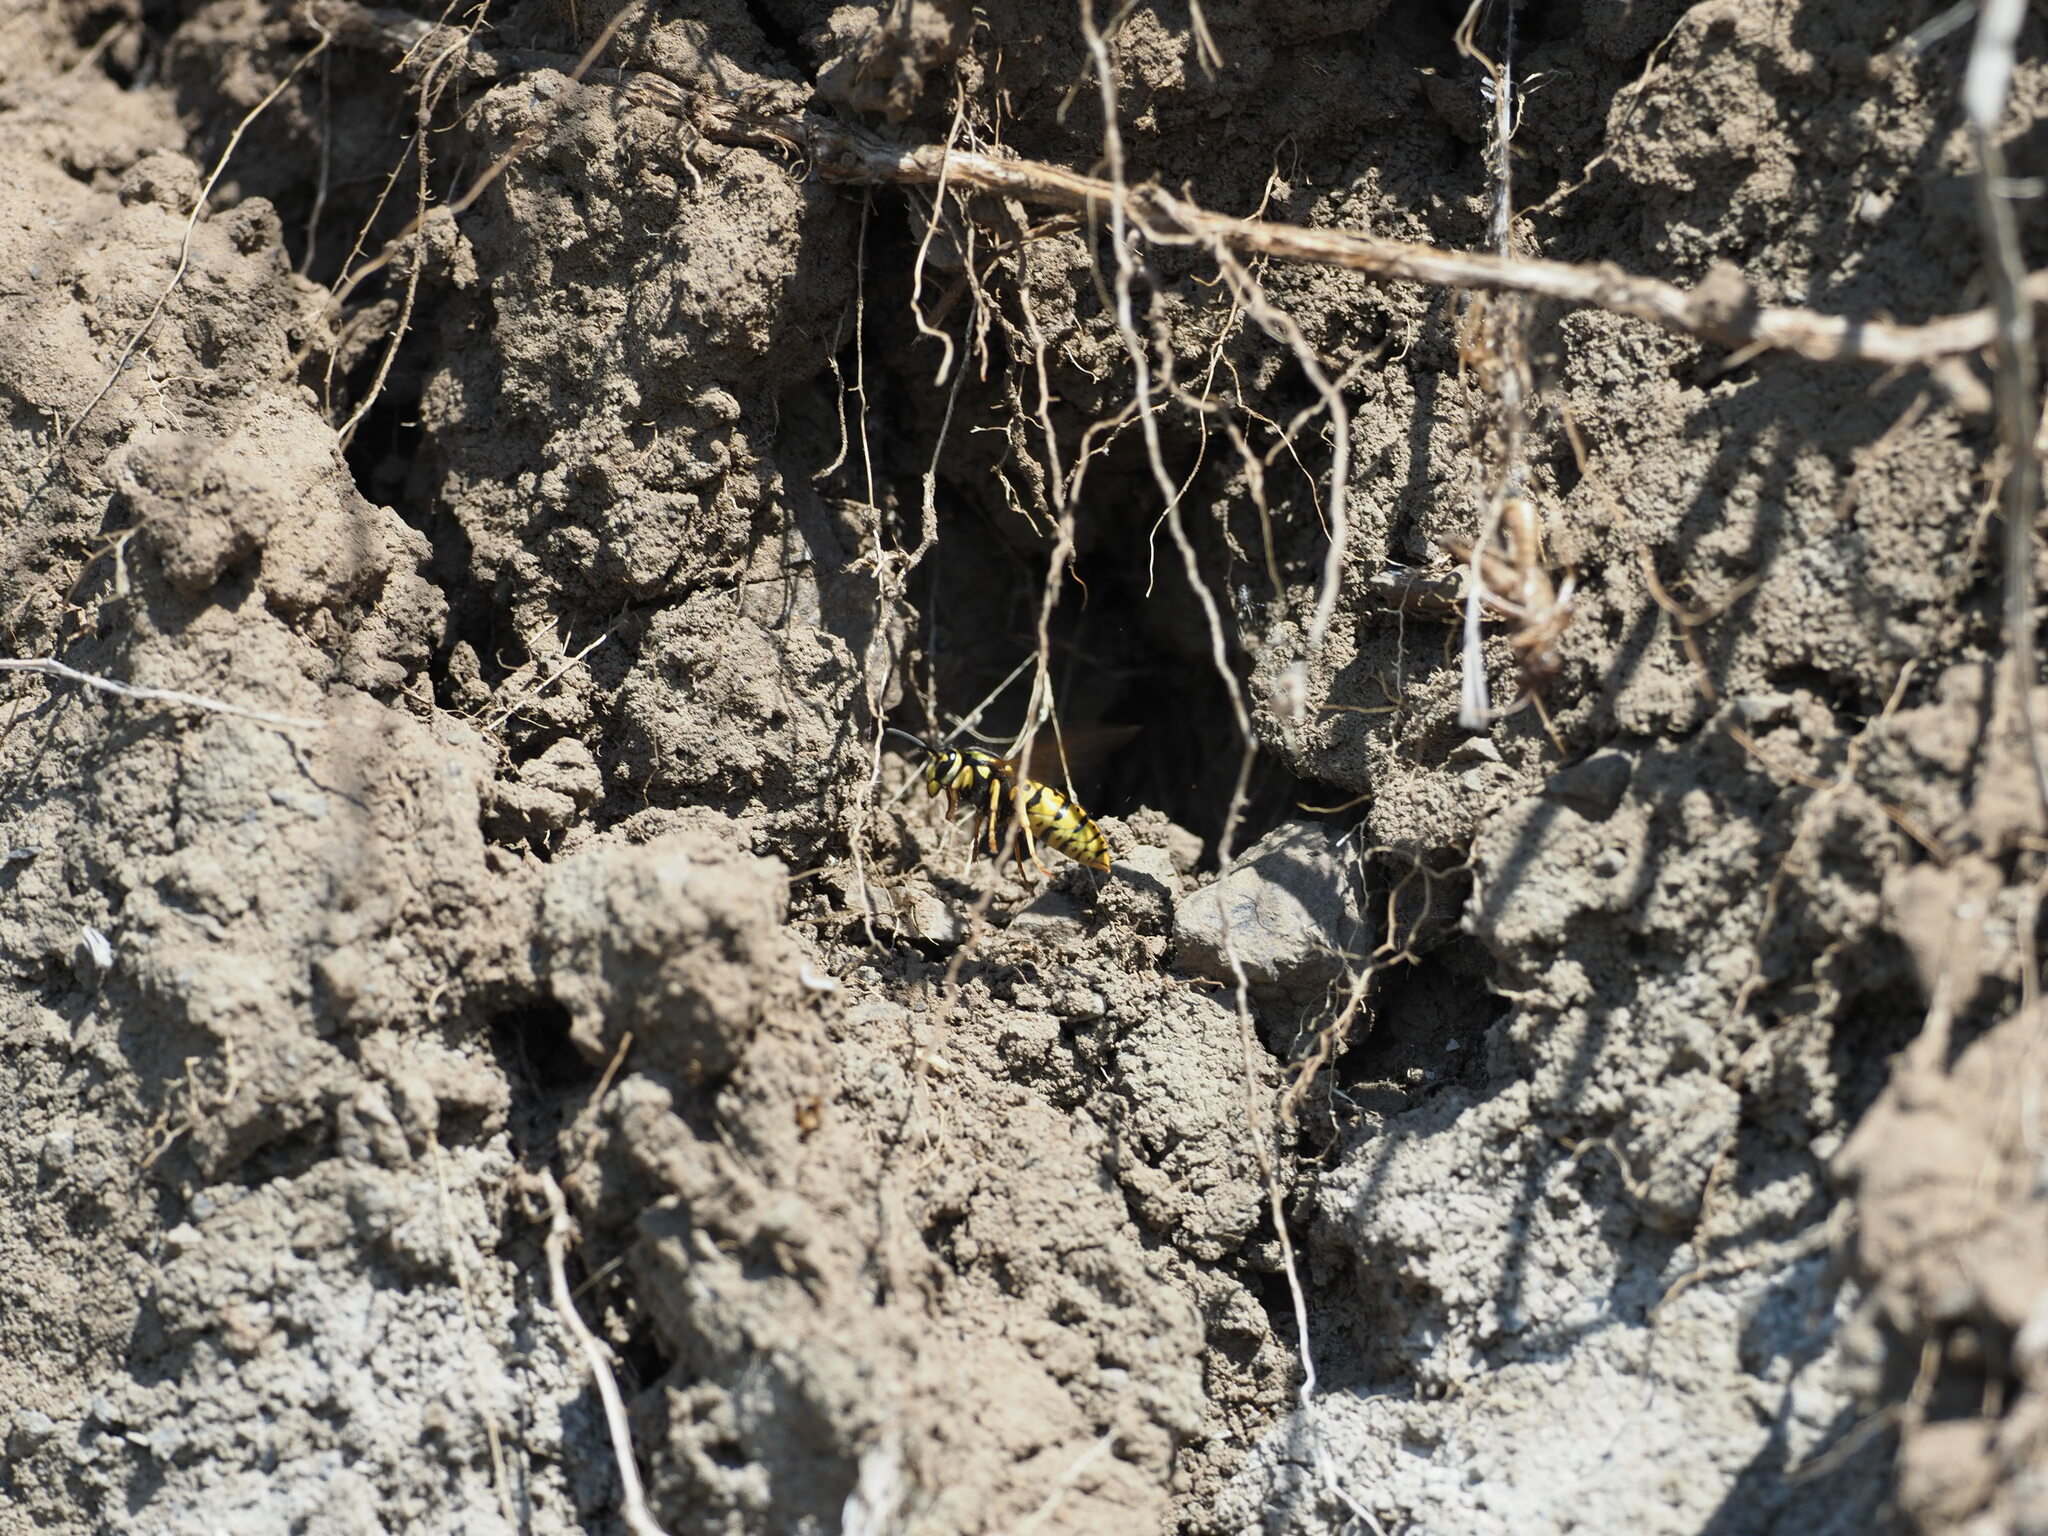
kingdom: Animalia
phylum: Arthropoda
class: Insecta
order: Hymenoptera
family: Vespidae
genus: Vespula
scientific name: Vespula atropilosa
